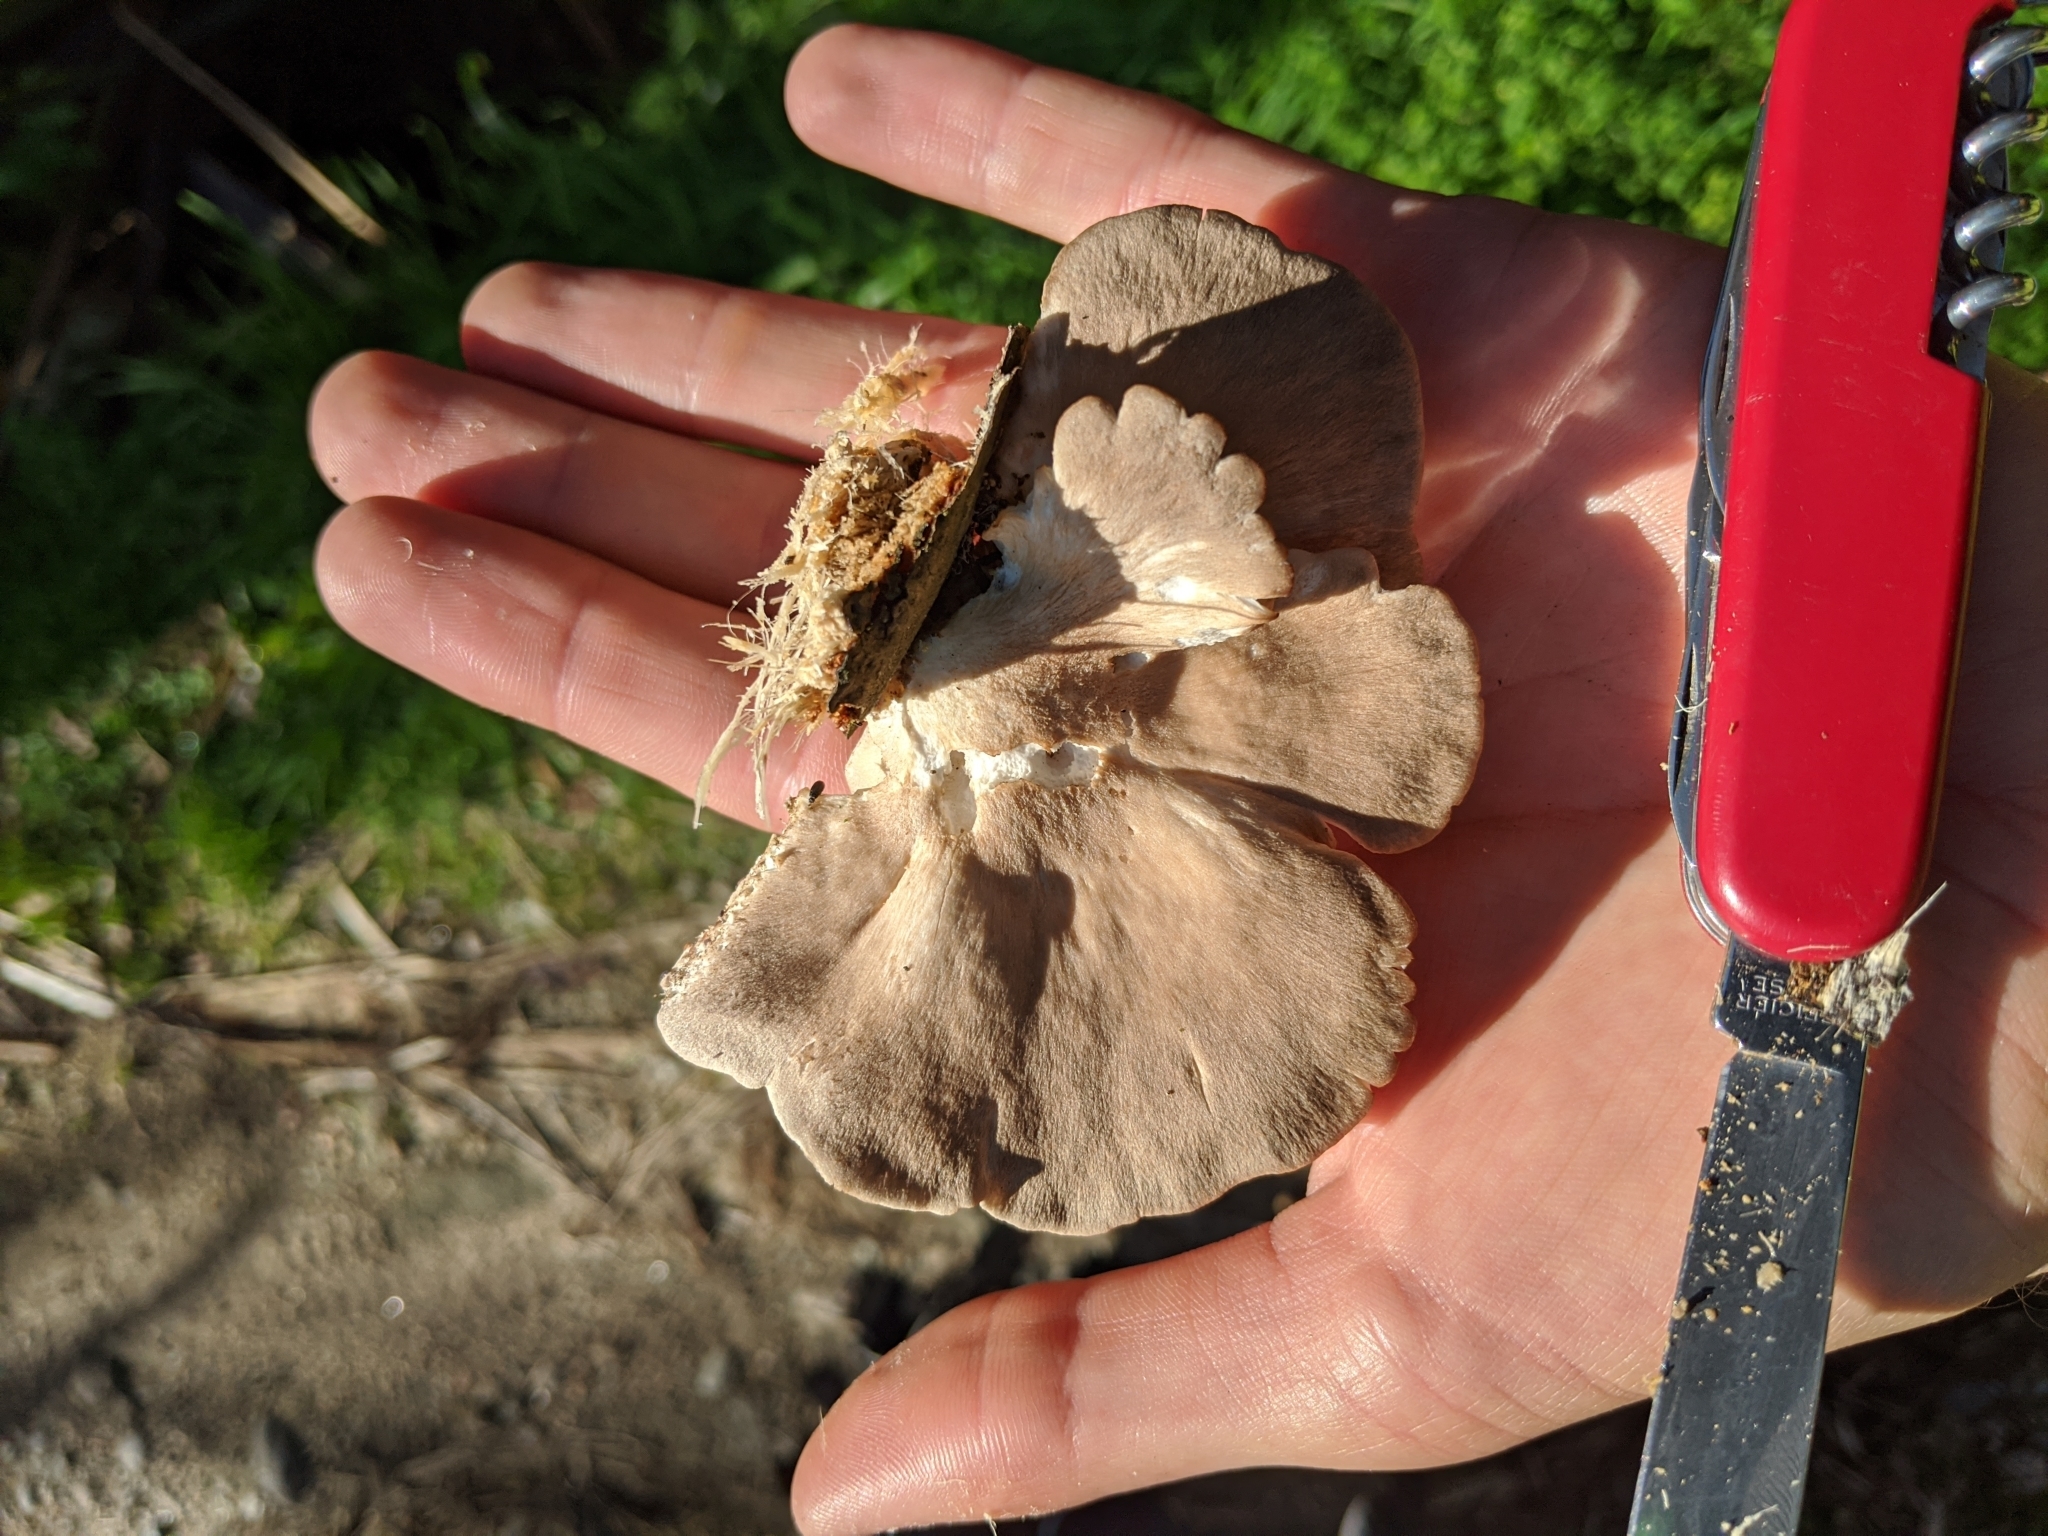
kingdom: Fungi
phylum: Basidiomycota
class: Agaricomycetes
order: Agaricales
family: Pleurotaceae
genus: Pleurotus
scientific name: Pleurotus parsonsiae
